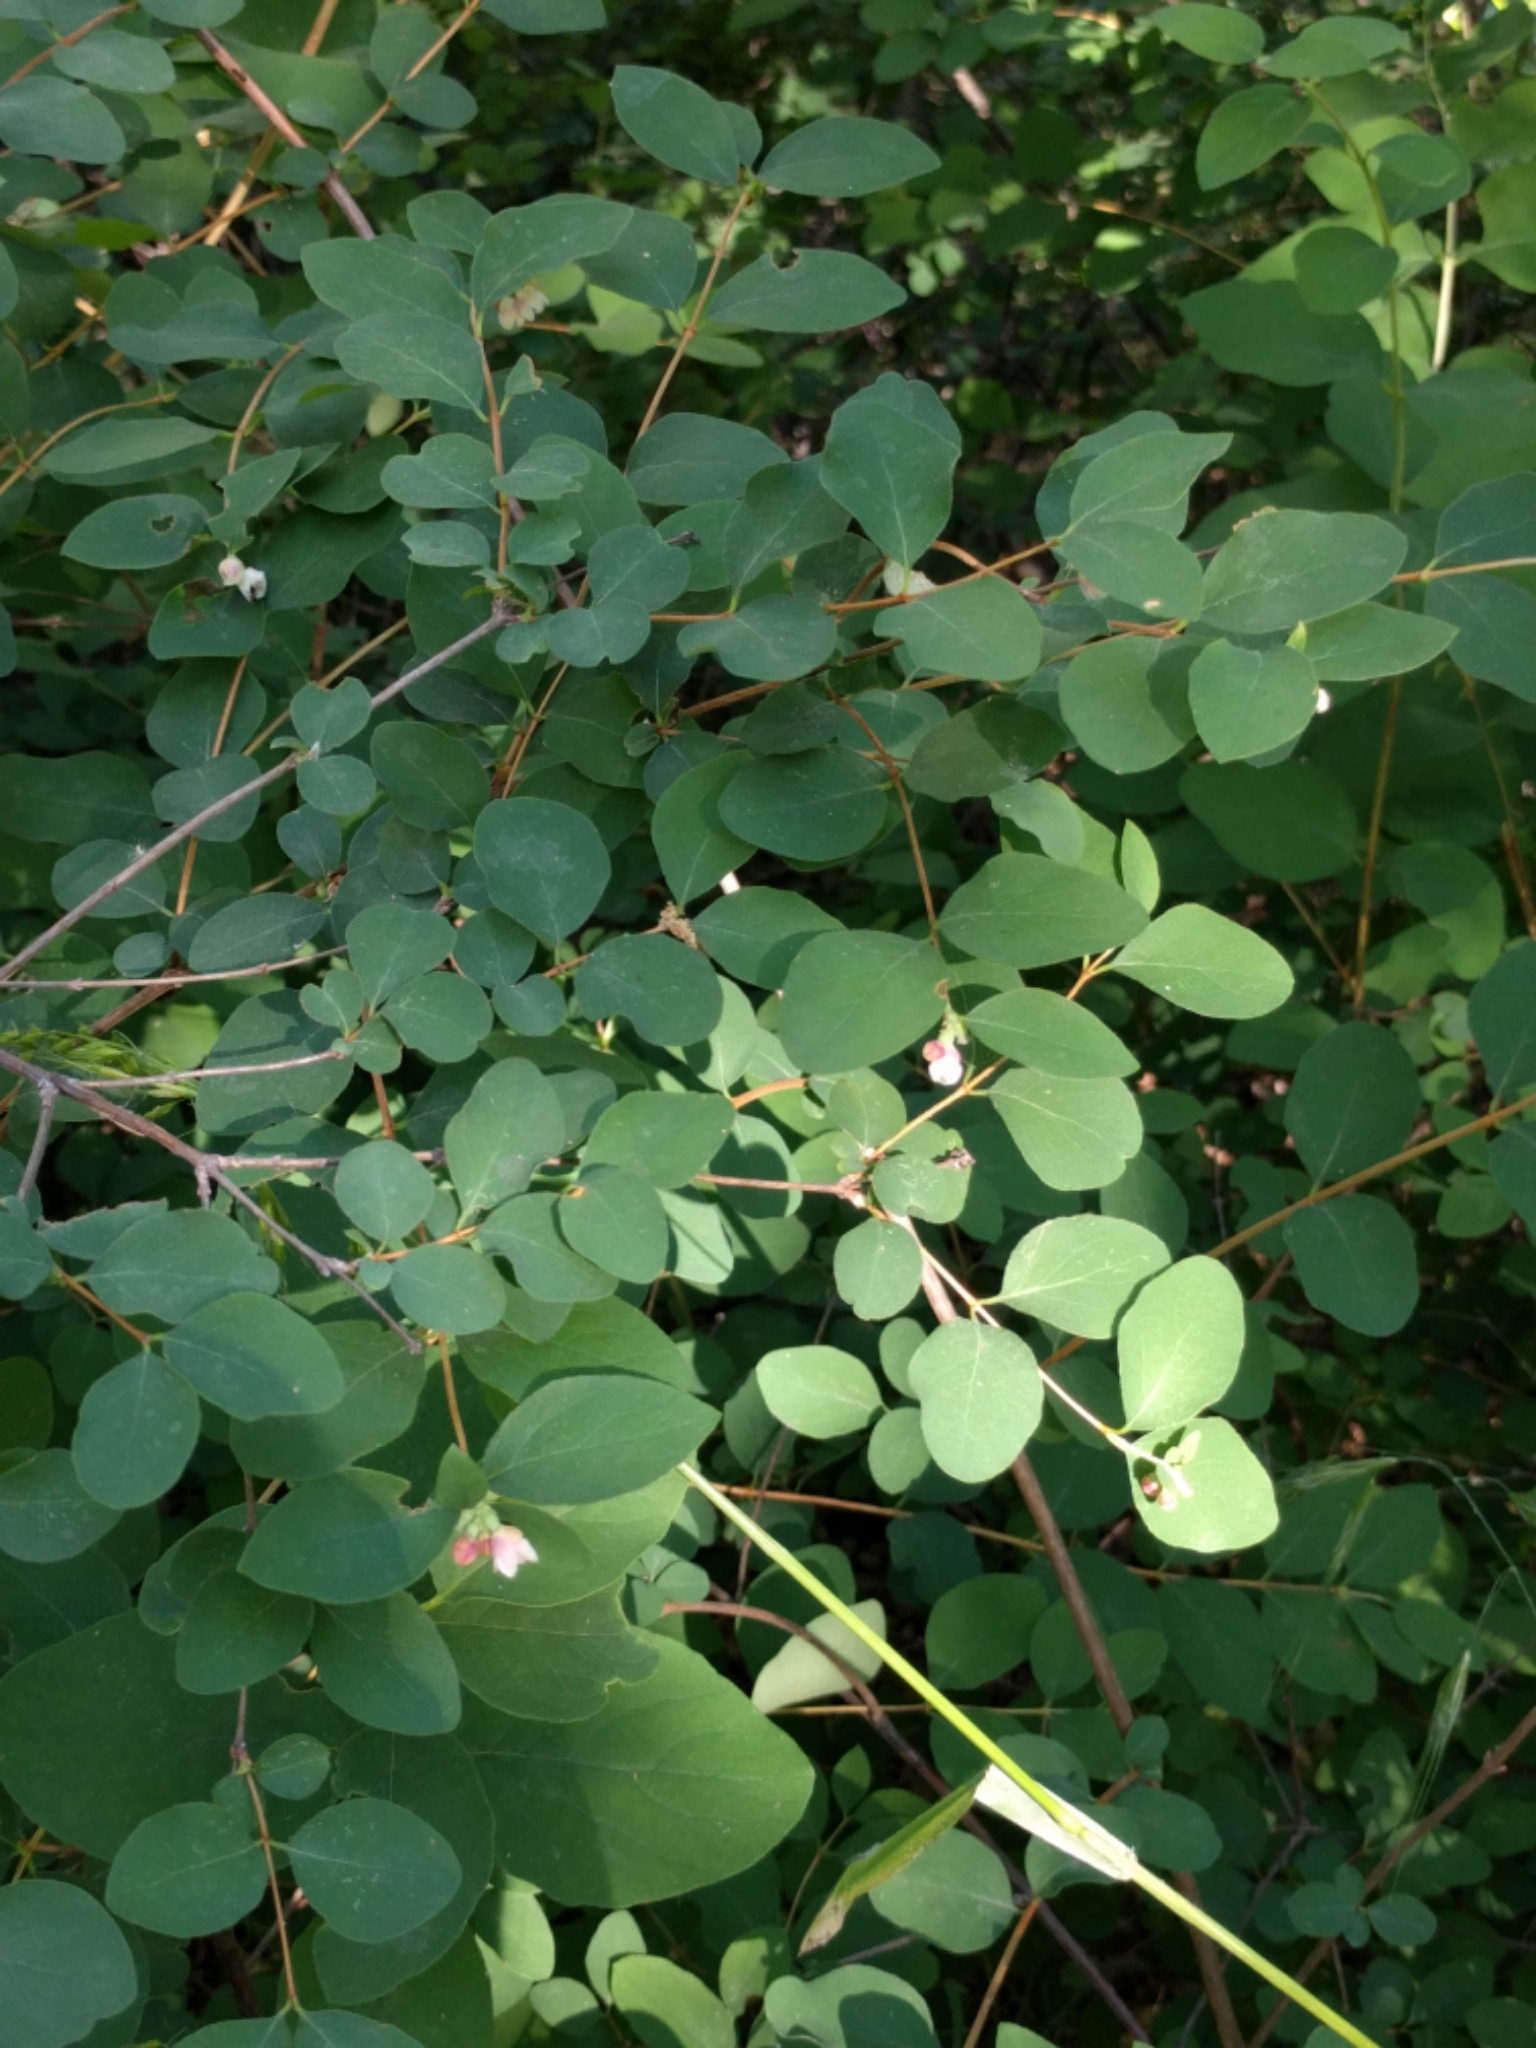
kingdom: Plantae
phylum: Tracheophyta
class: Magnoliopsida
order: Dipsacales
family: Caprifoliaceae
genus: Symphoricarpos
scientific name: Symphoricarpos albus
